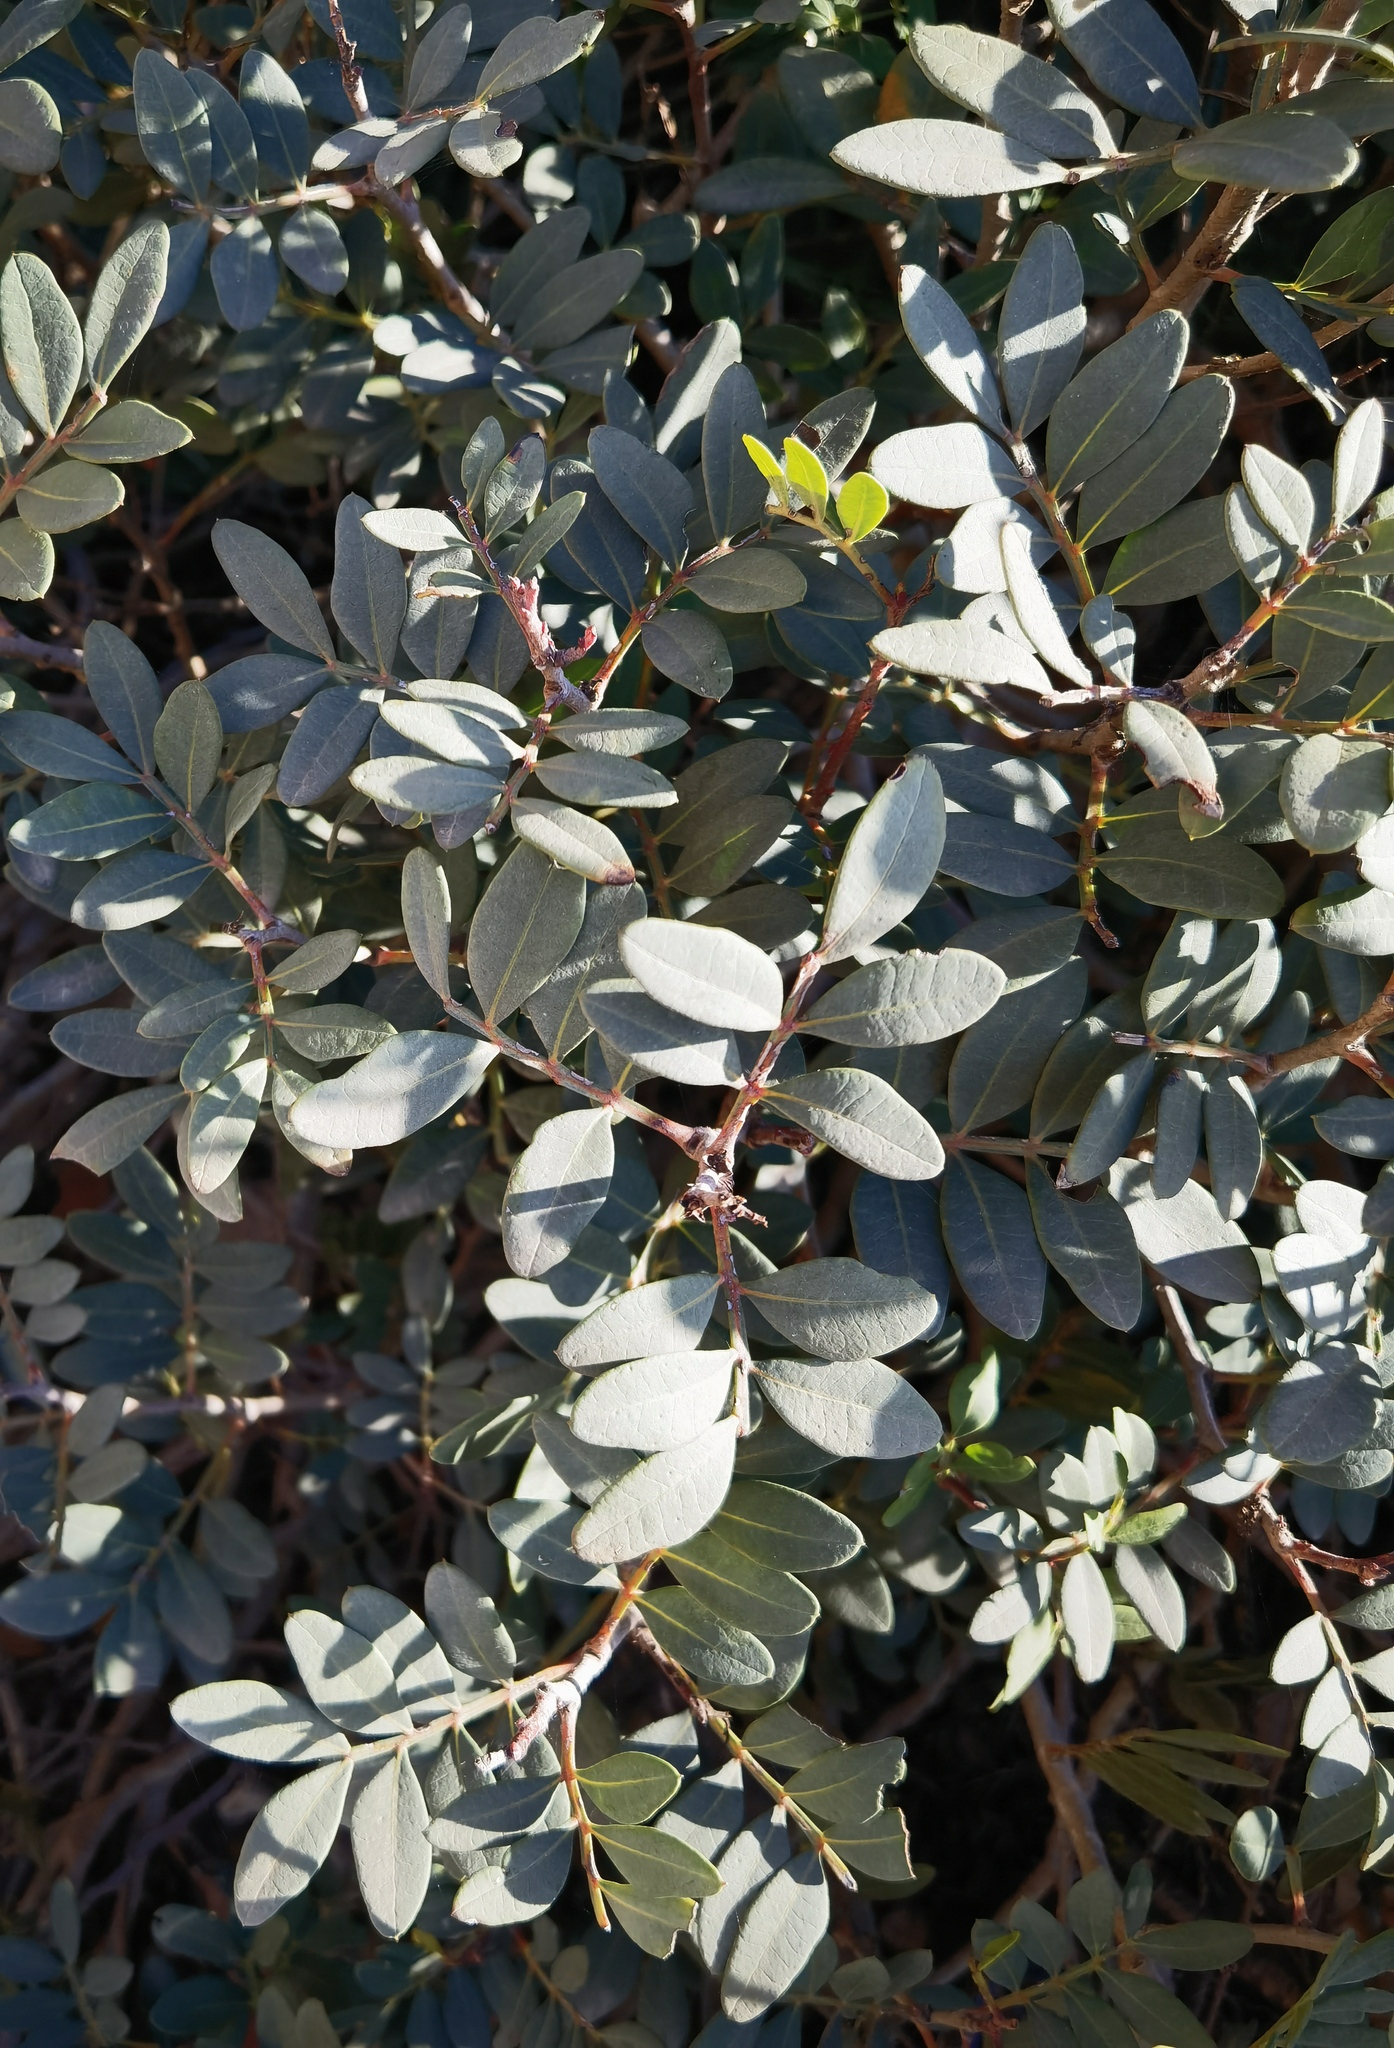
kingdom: Plantae
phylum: Tracheophyta
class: Magnoliopsida
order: Sapindales
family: Anacardiaceae
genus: Pistacia
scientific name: Pistacia lentiscus
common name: Lentisk
